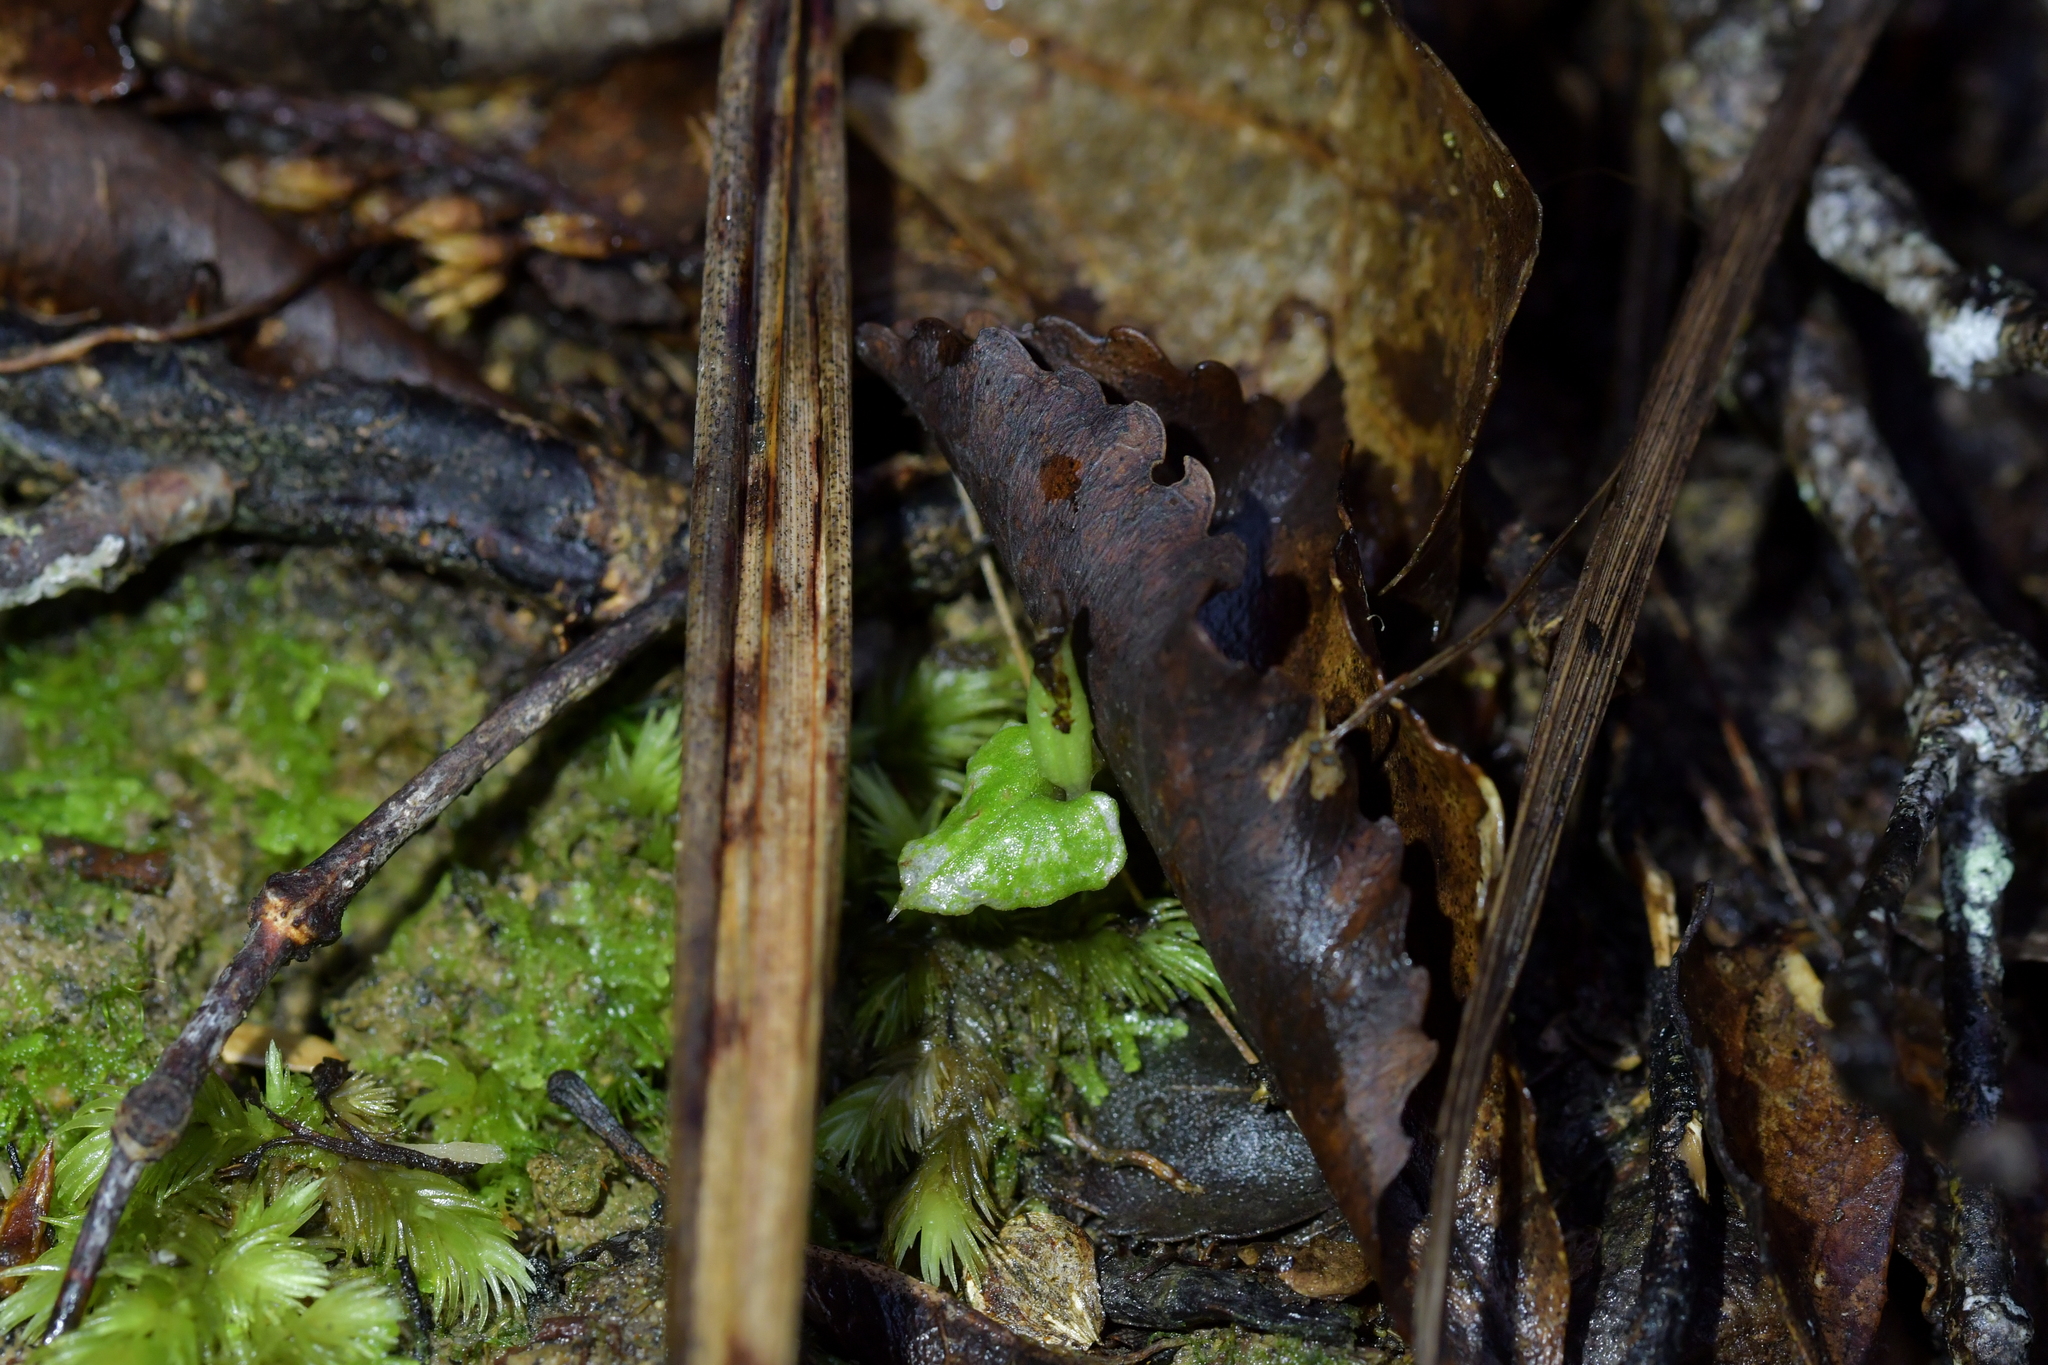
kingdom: Plantae
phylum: Tracheophyta
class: Liliopsida
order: Asparagales
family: Orchidaceae
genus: Corybas
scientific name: Corybas cheesemanii
